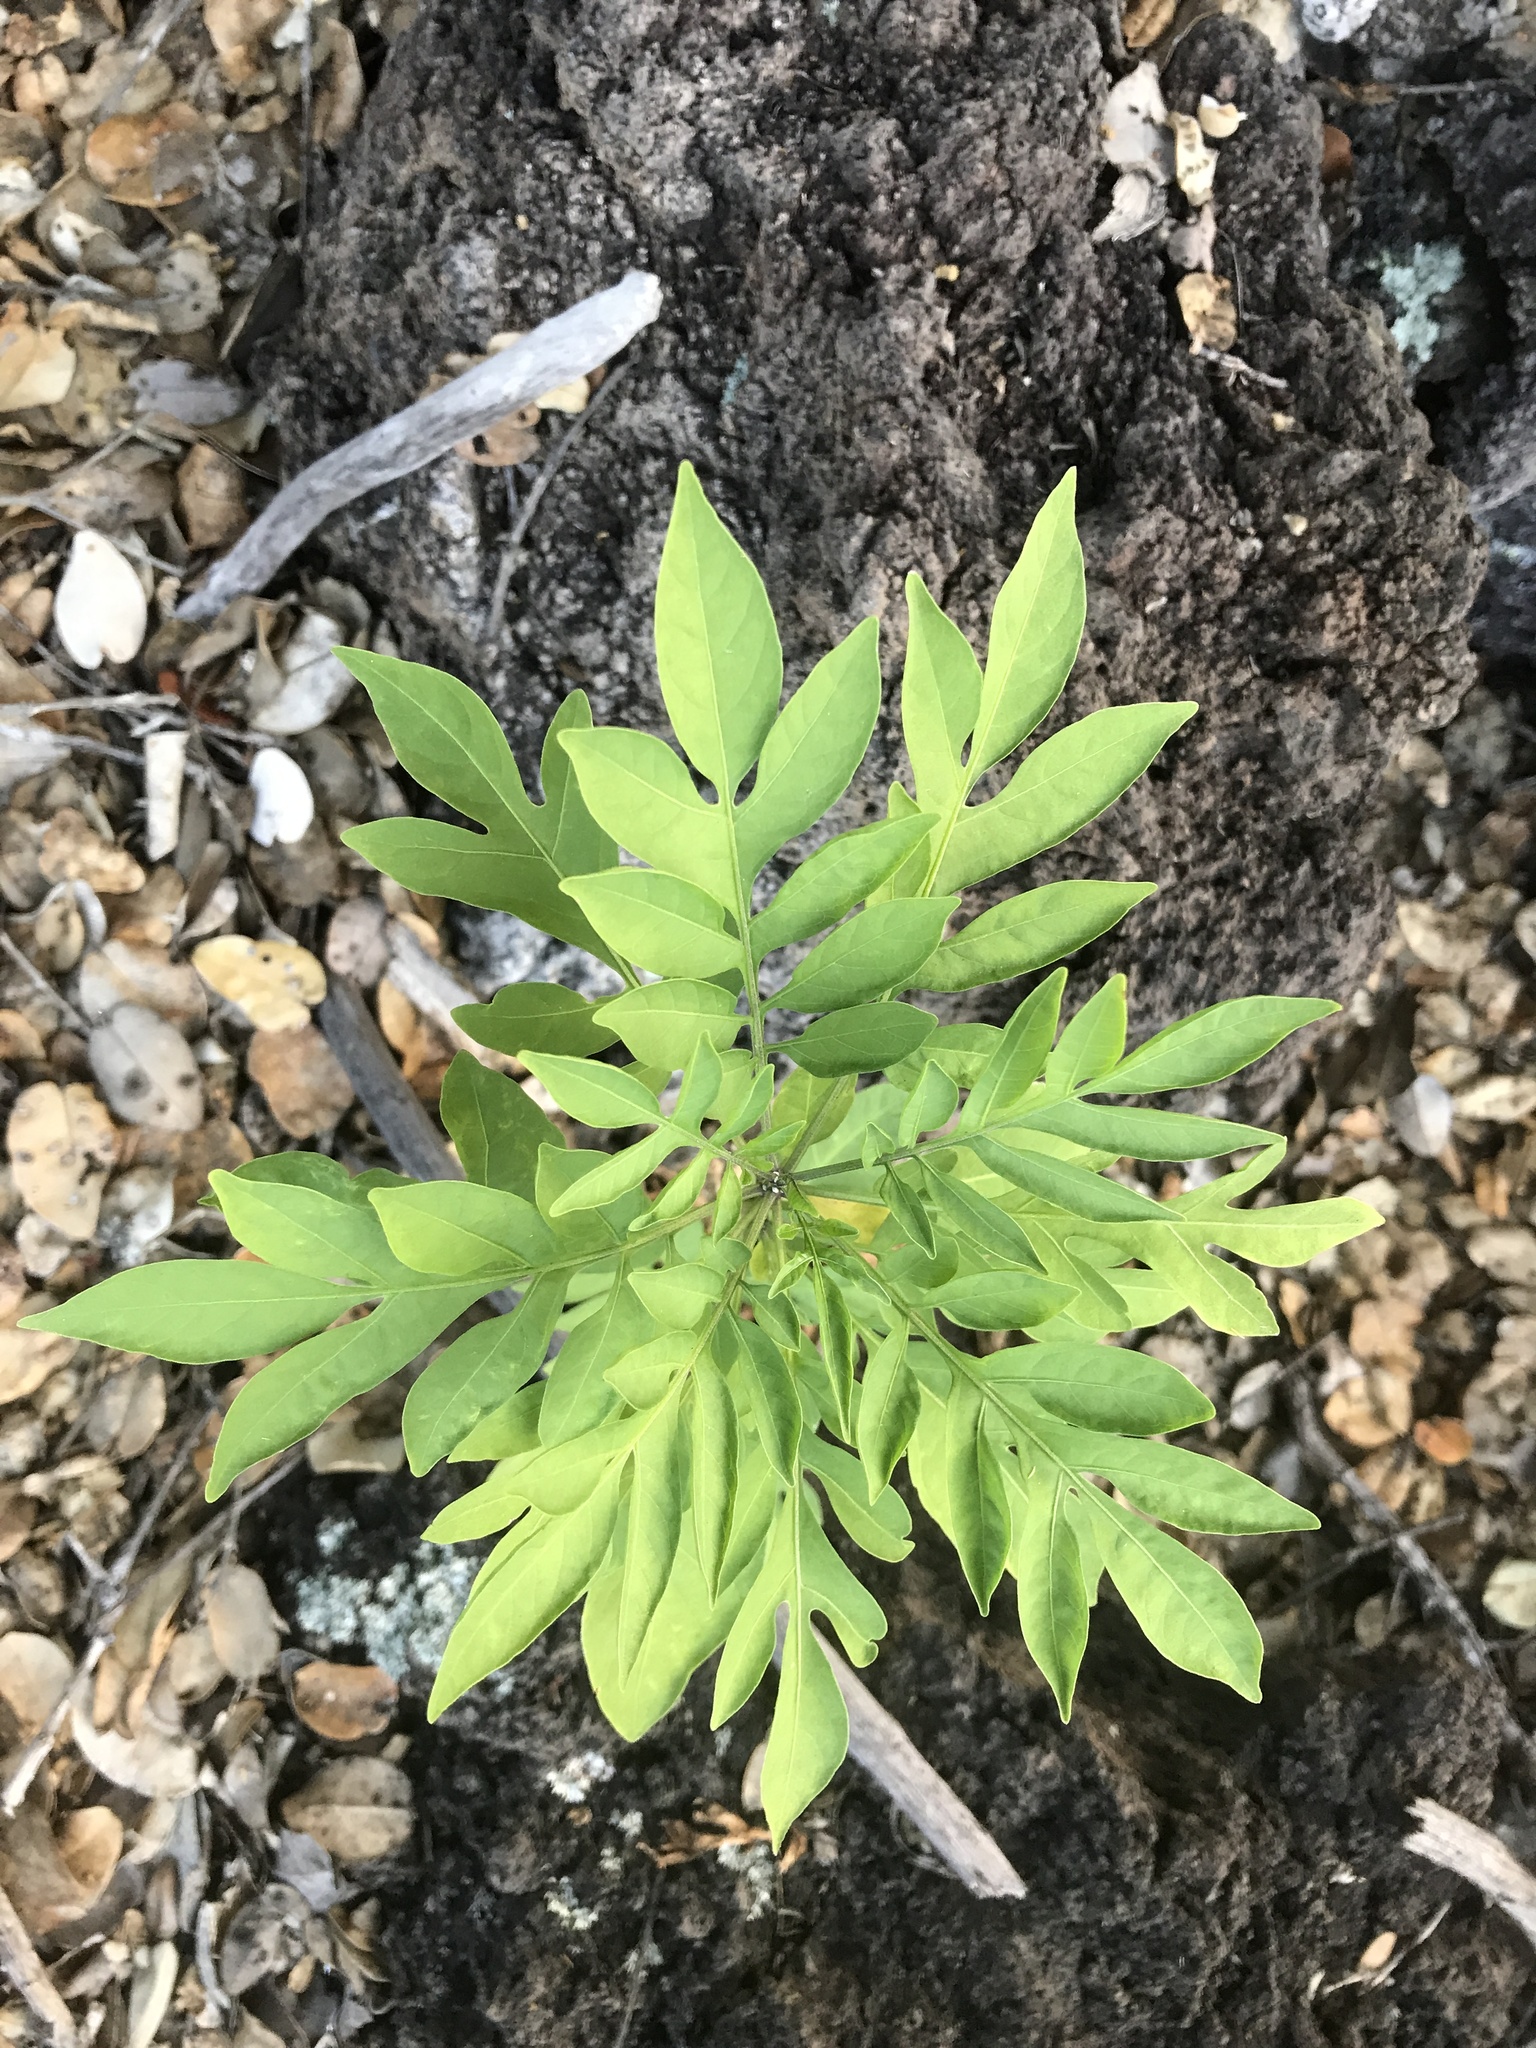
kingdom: Plantae
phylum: Tracheophyta
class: Magnoliopsida
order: Solanales
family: Solanaceae
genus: Solanum
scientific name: Solanum seaforthianum
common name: Brazilian nightshade
